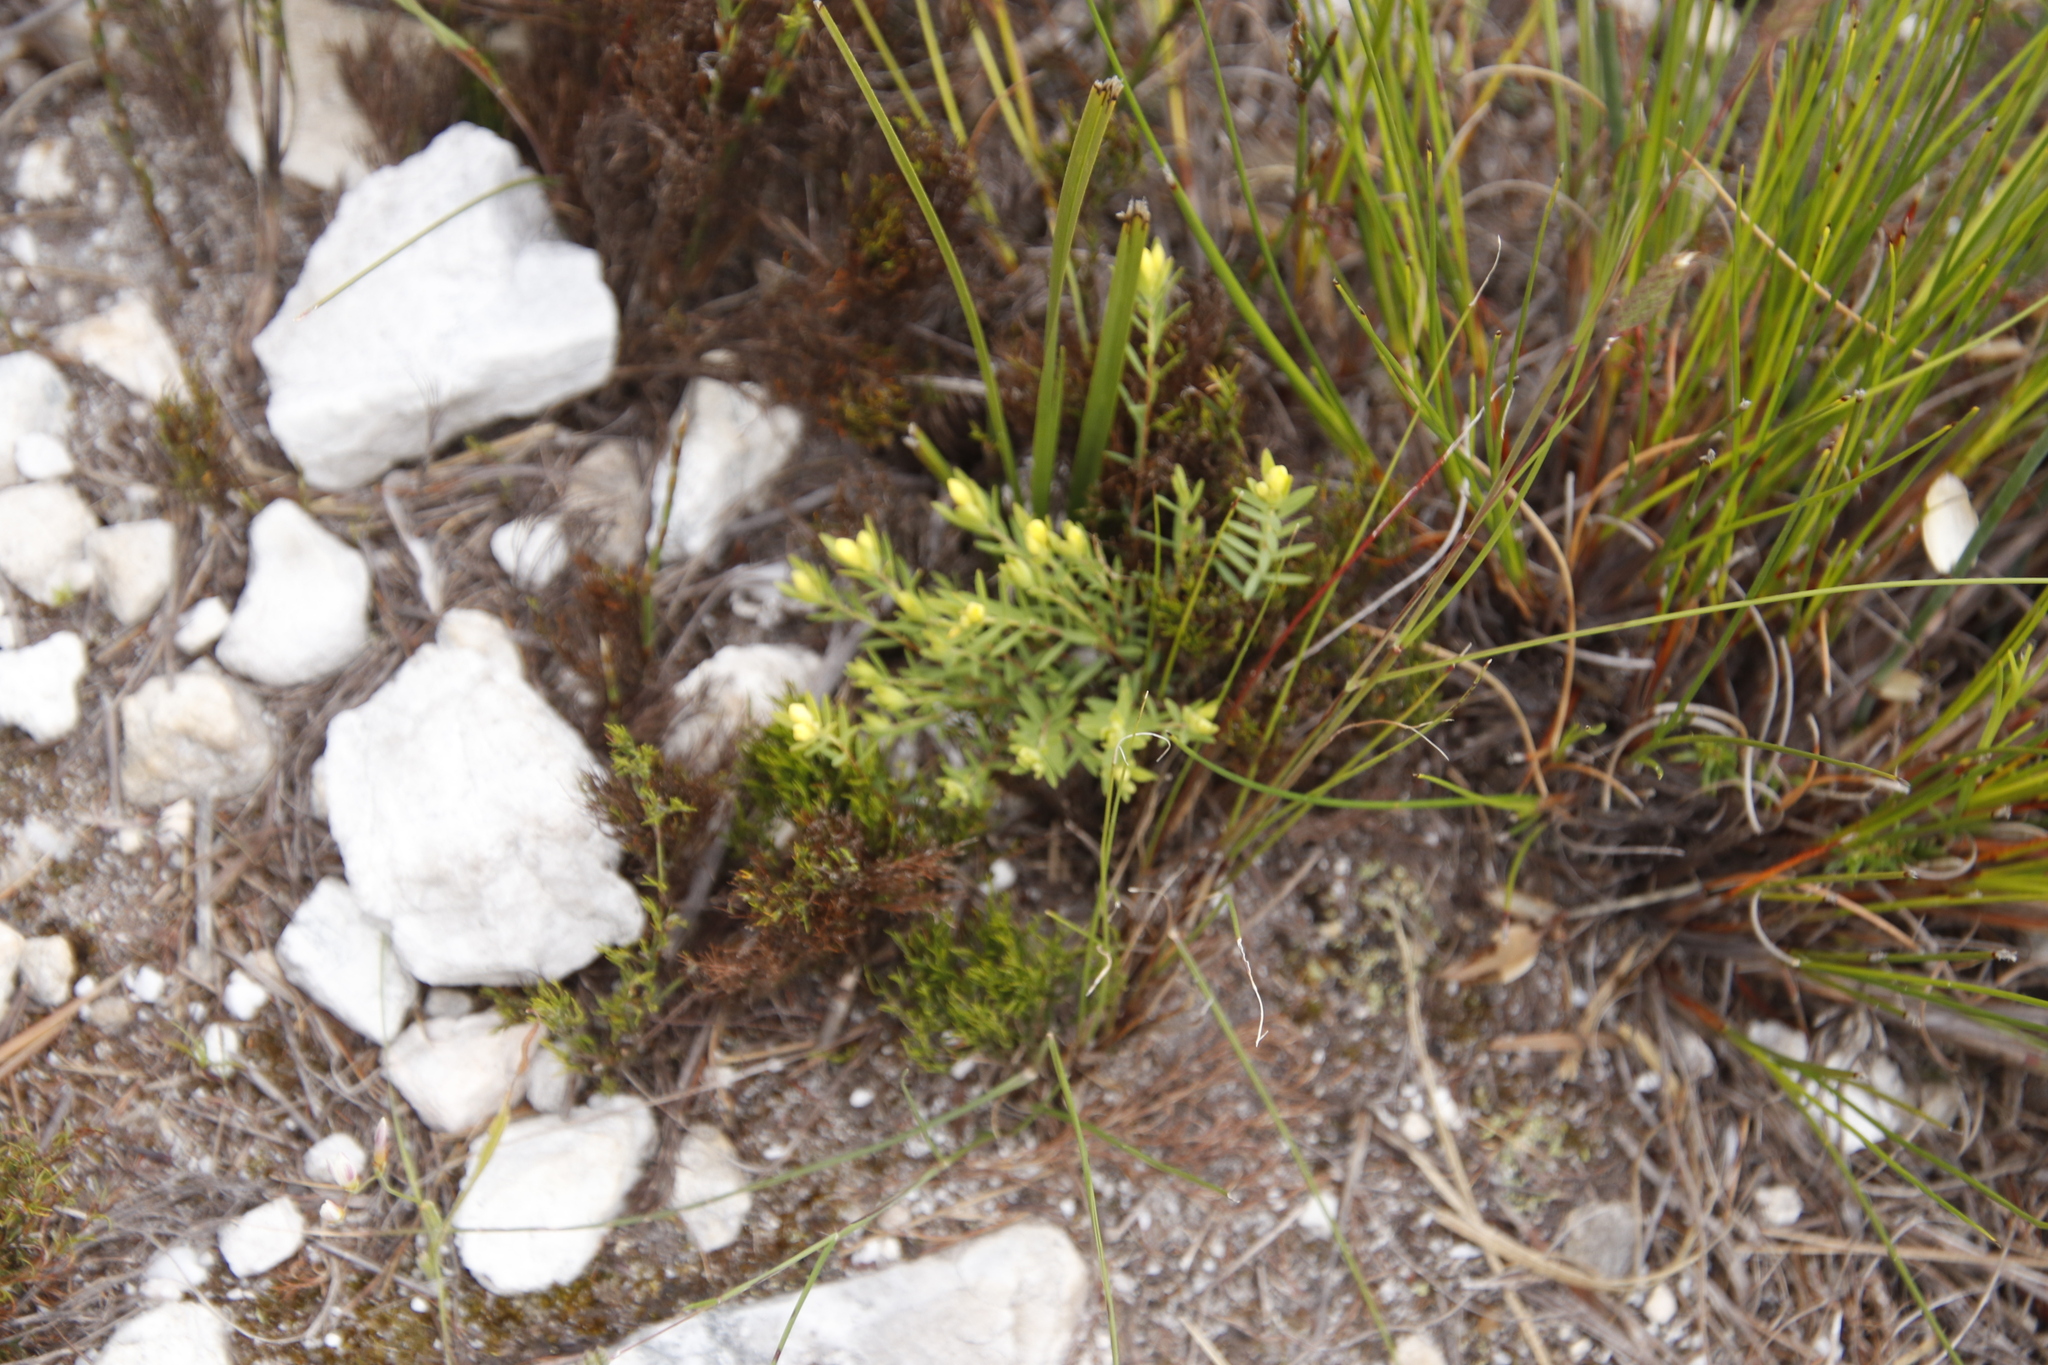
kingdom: Plantae
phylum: Tracheophyta
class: Magnoliopsida
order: Malvales
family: Thymelaeaceae
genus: Gnidia
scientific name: Gnidia galpinii
